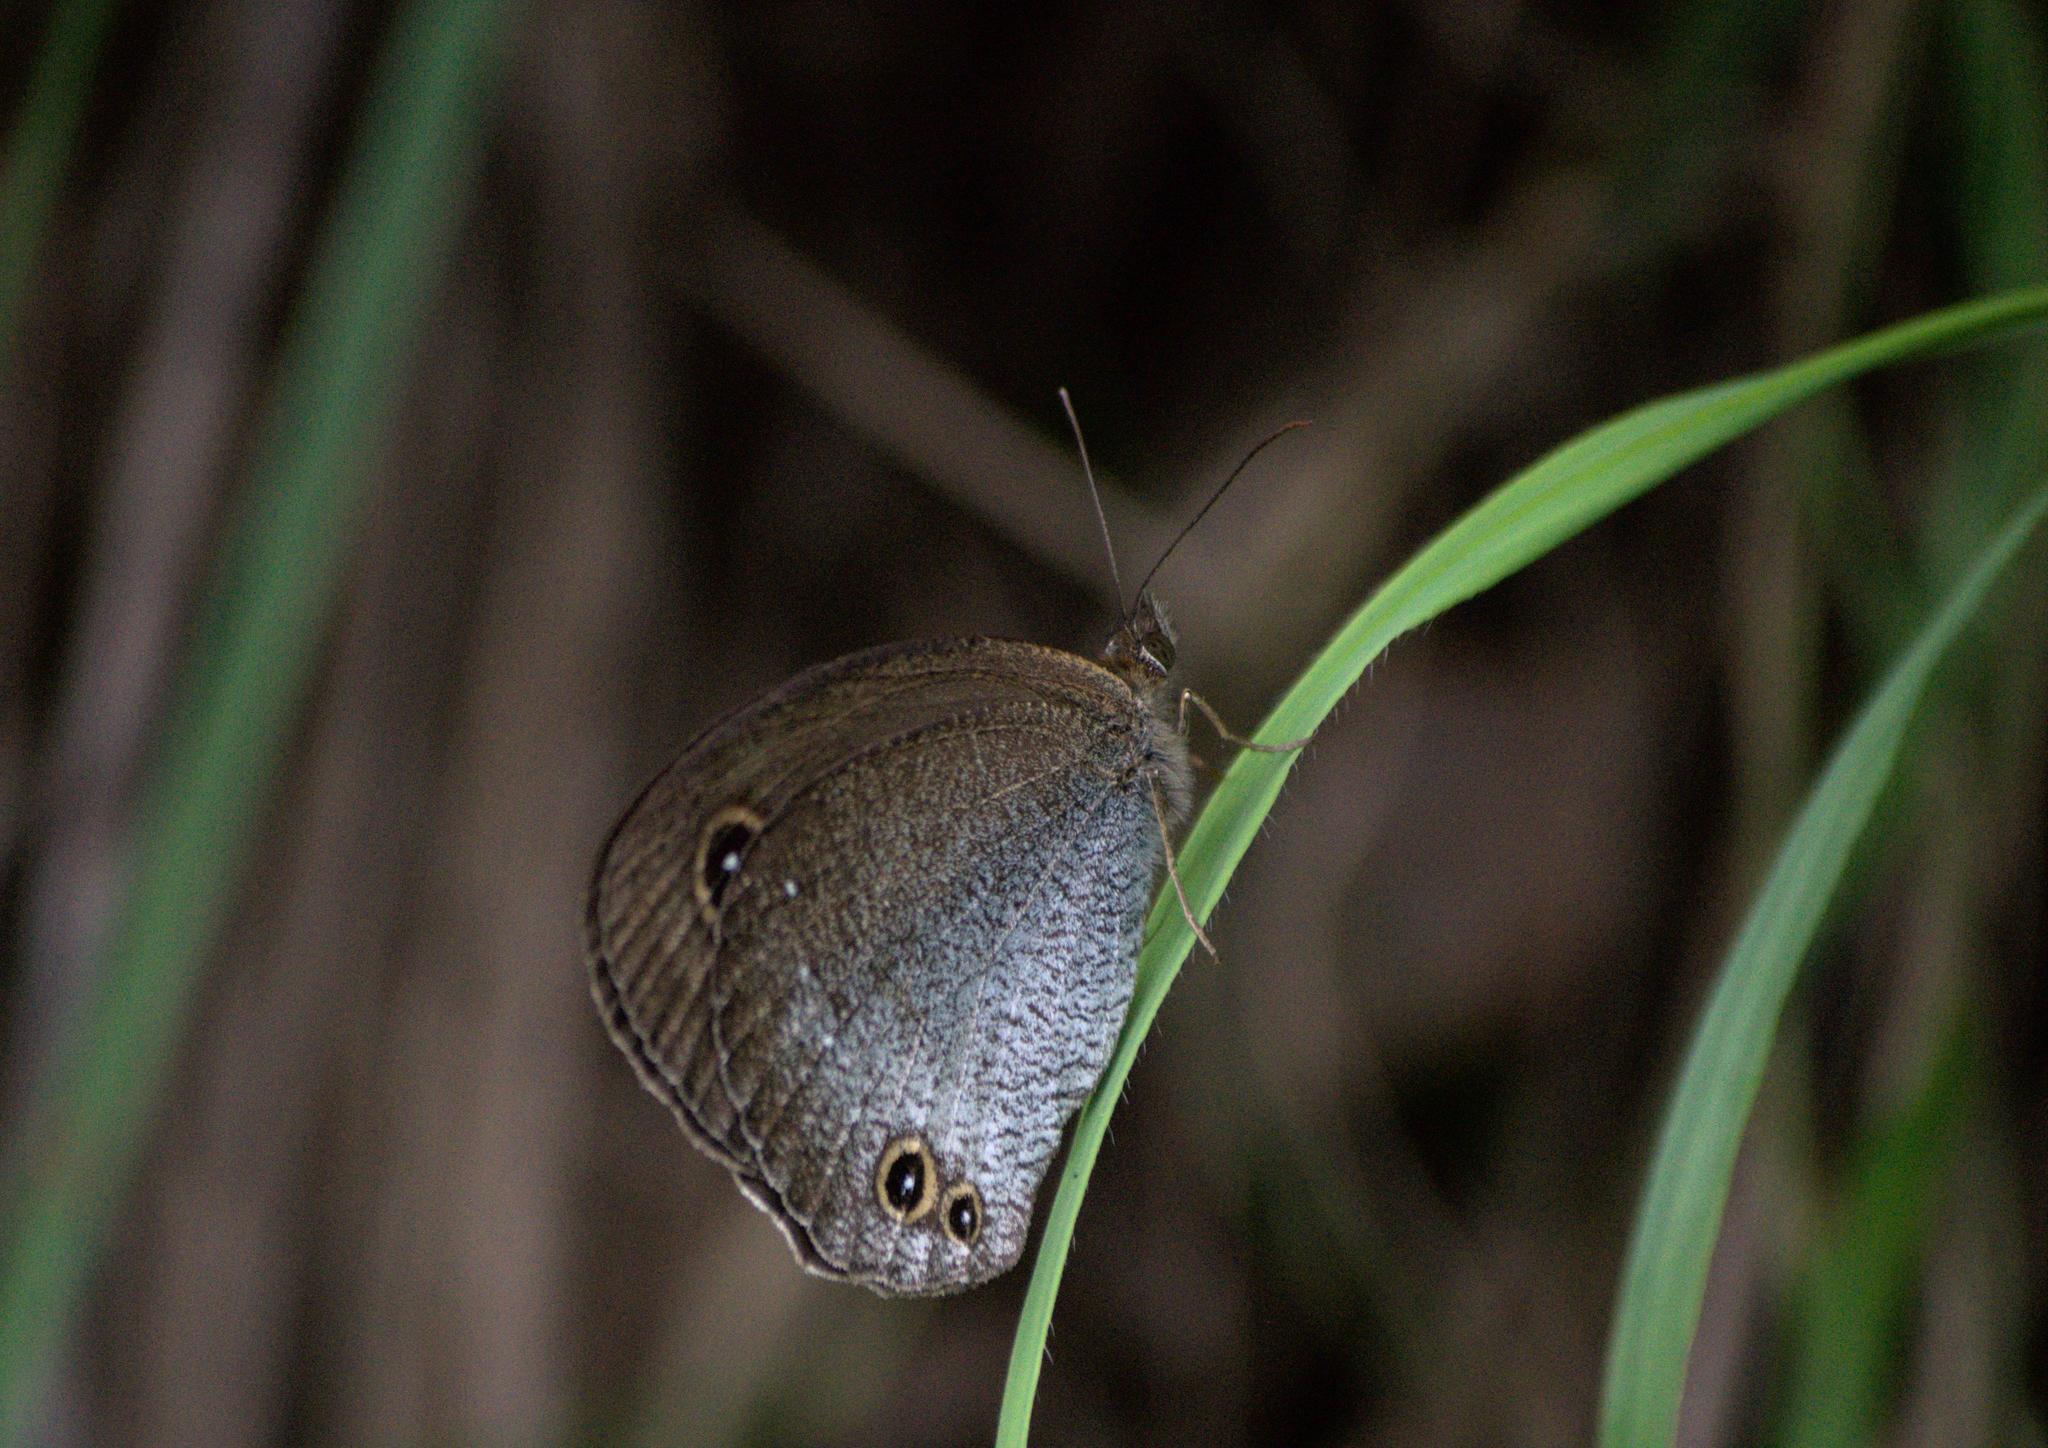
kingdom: Animalia
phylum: Arthropoda
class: Insecta
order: Lepidoptera
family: Nymphalidae
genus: Callerebia
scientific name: Callerebia scanda
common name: Pallid argus
